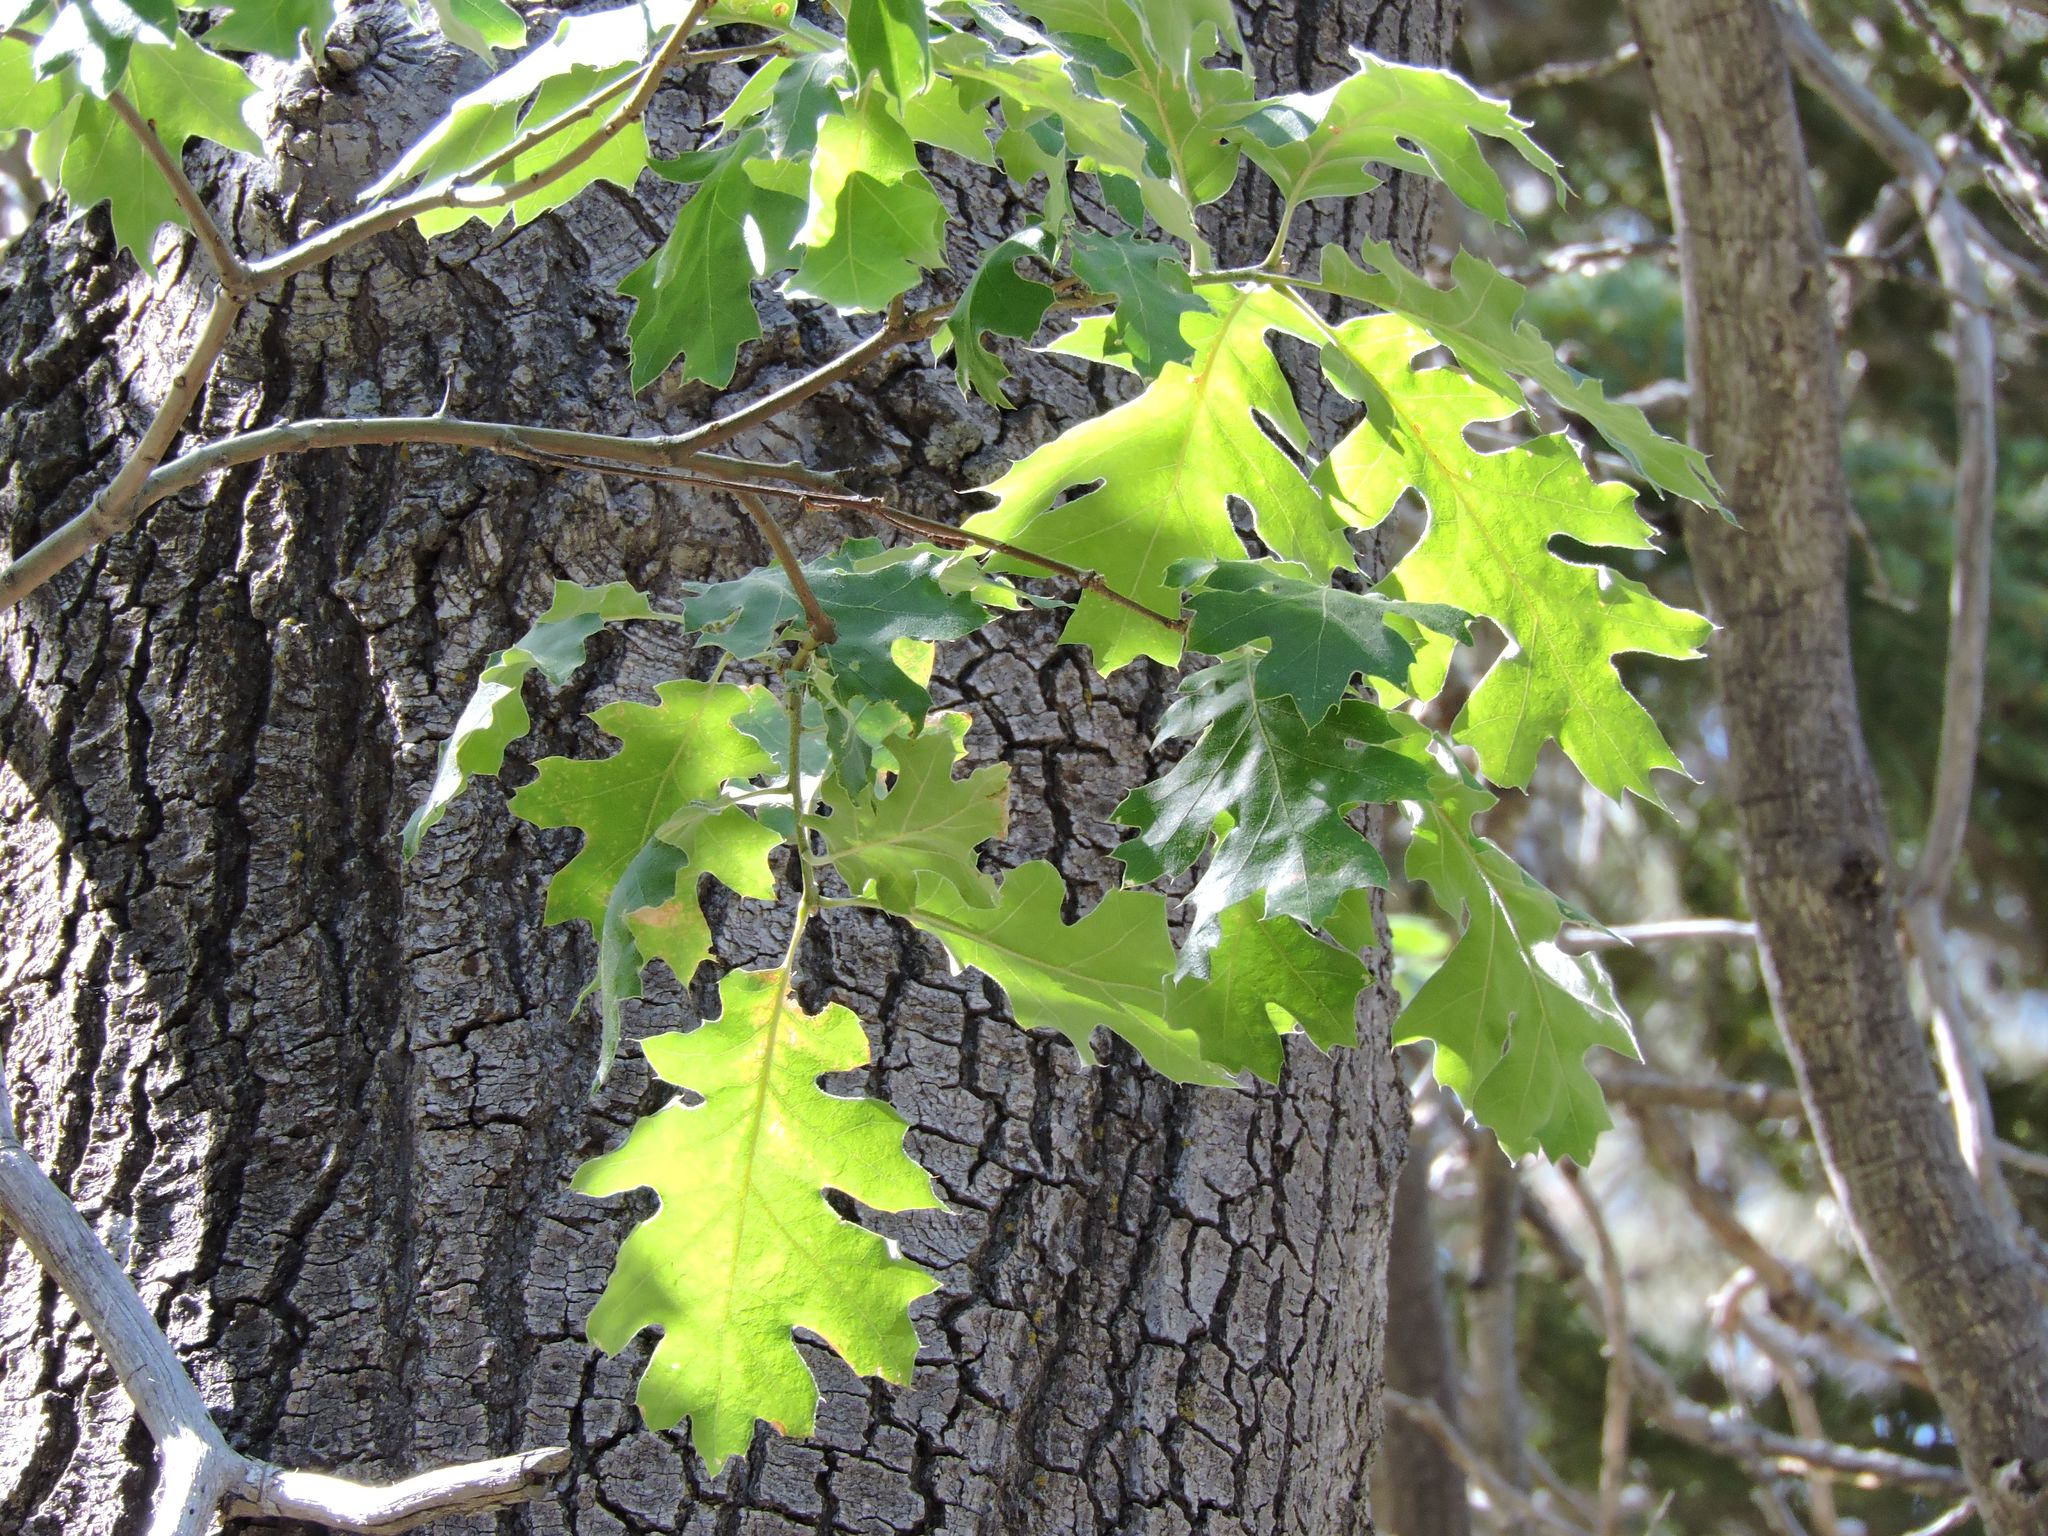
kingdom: Plantae
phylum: Tracheophyta
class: Magnoliopsida
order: Fagales
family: Fagaceae
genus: Quercus
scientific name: Quercus kelloggii
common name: California black oak
